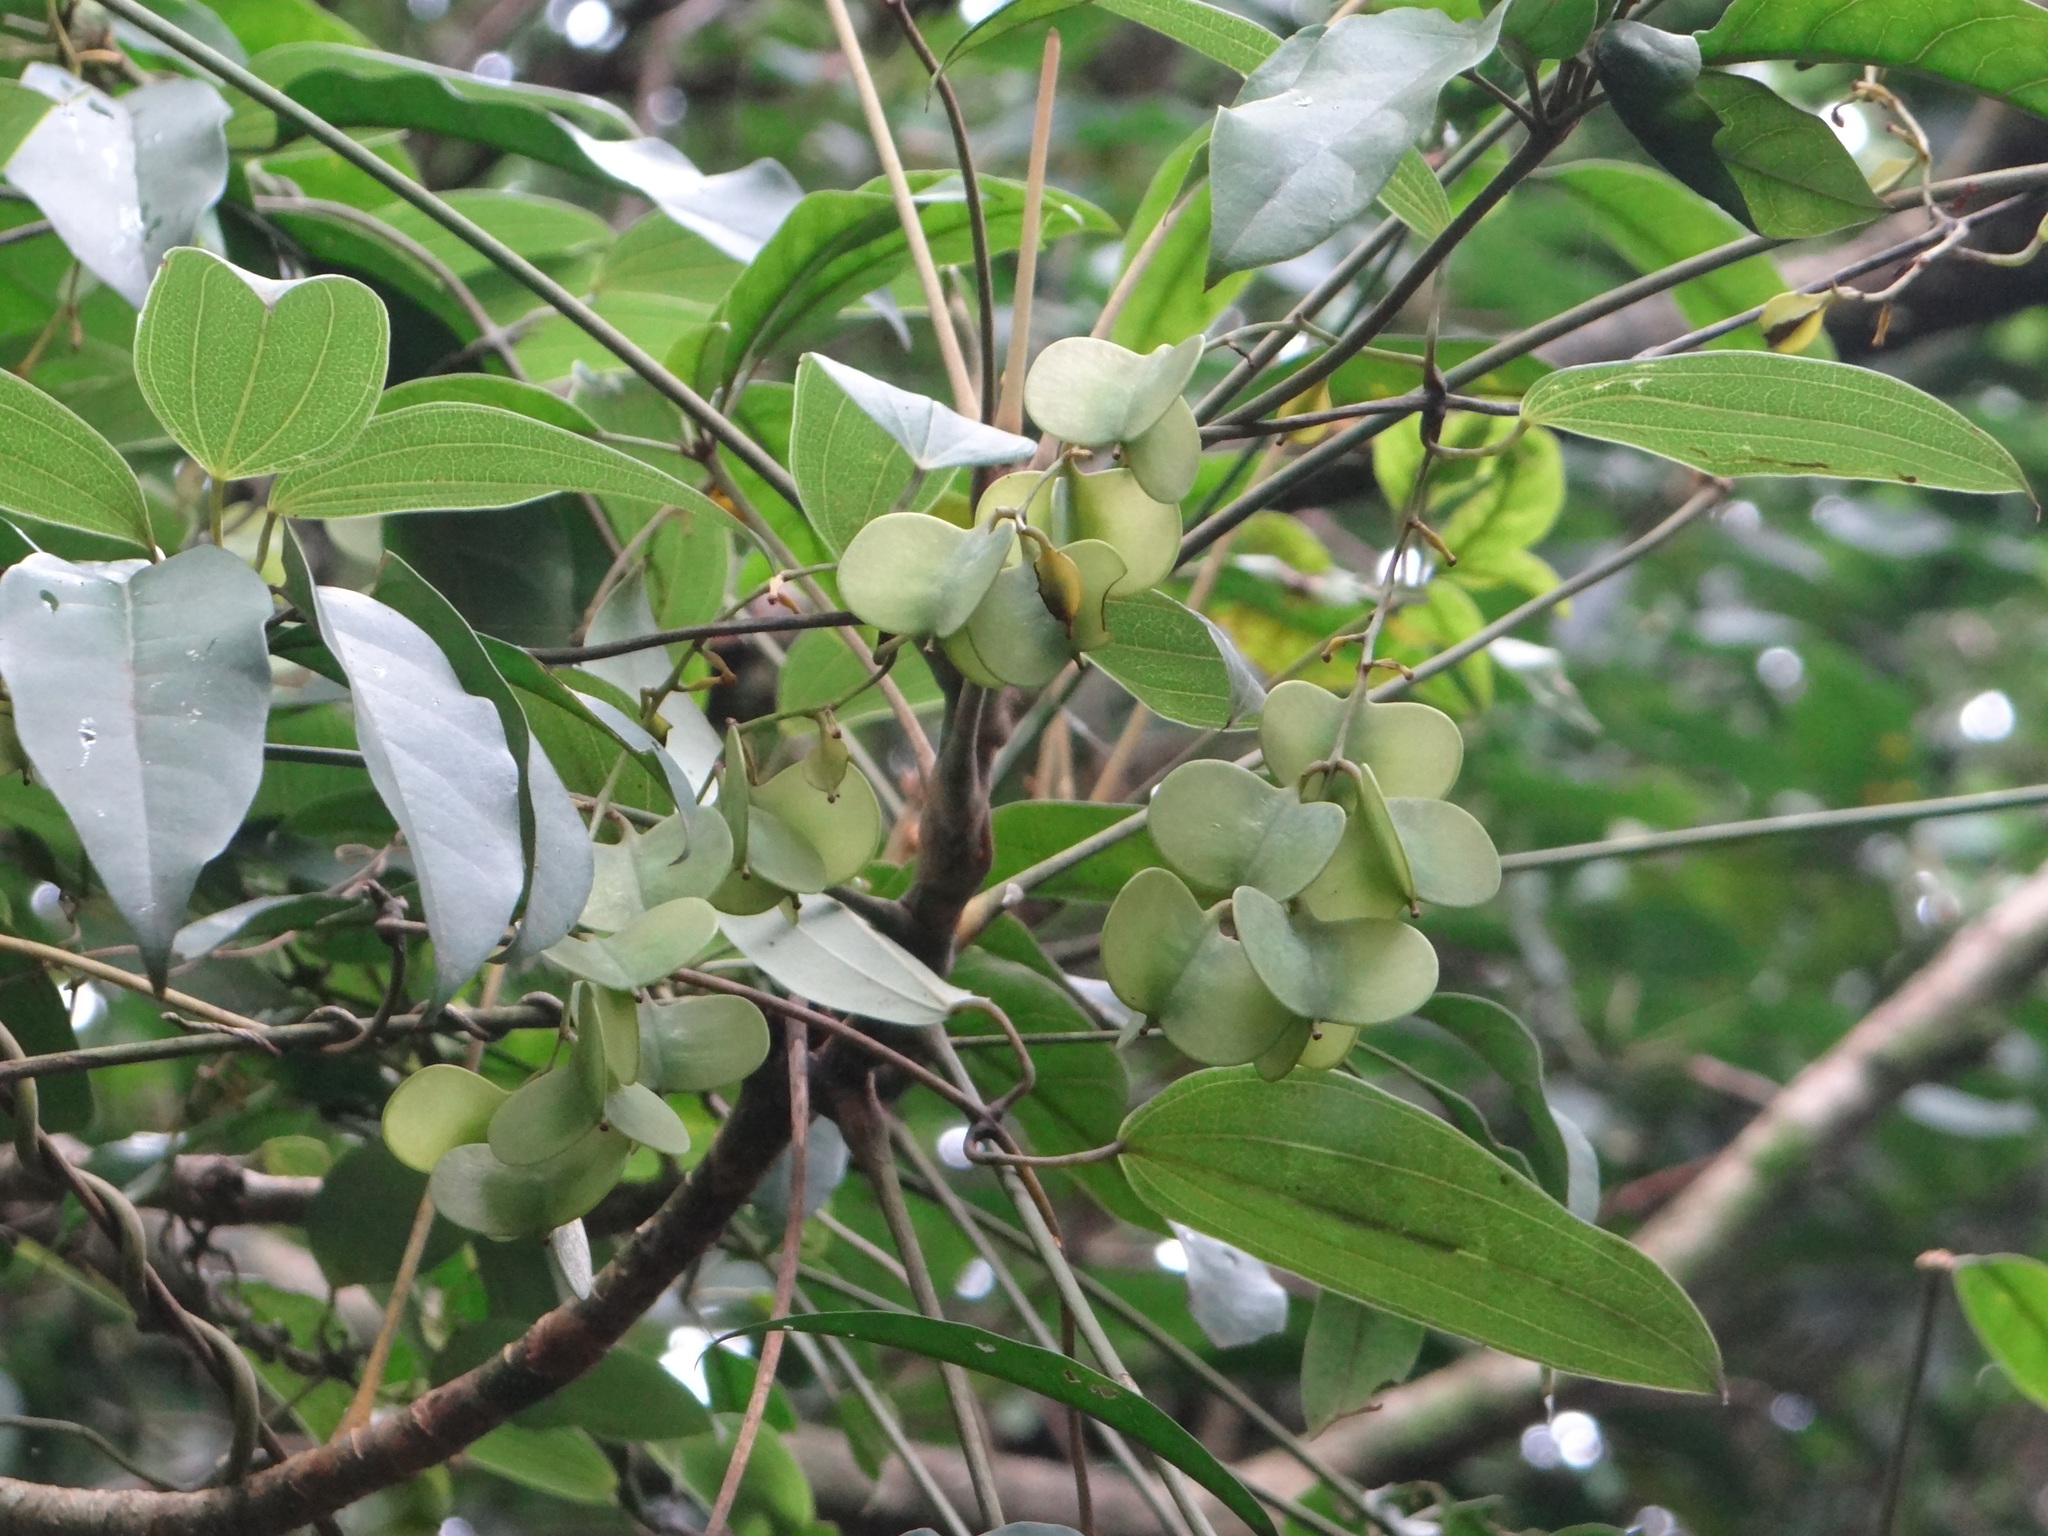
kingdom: Plantae
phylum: Tracheophyta
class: Liliopsida
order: Dioscoreales
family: Dioscoreaceae
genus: Dioscorea
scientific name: Dioscorea cirrhosa
